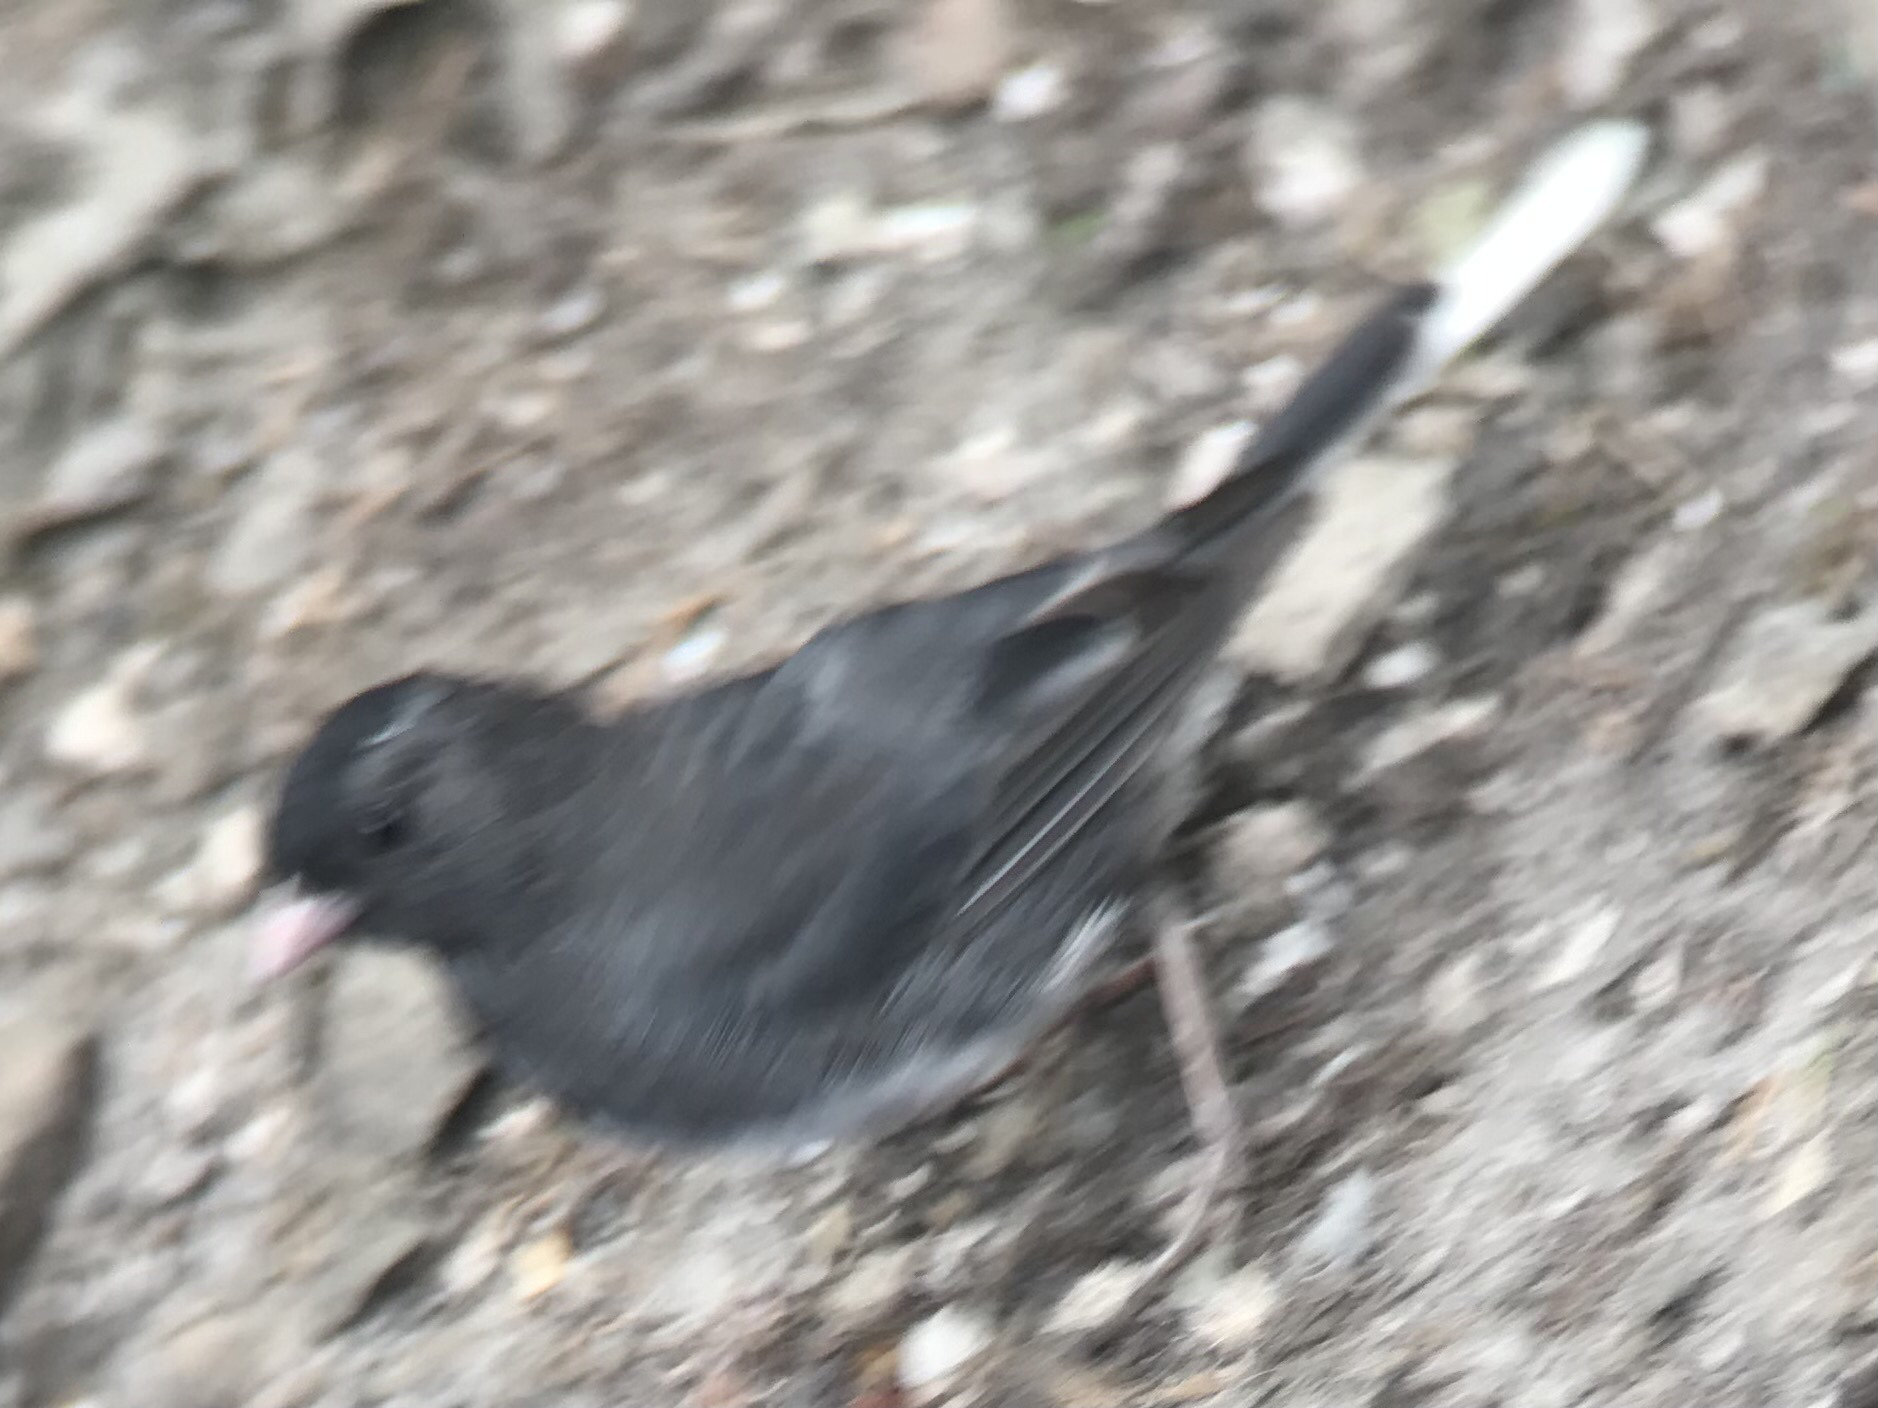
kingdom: Animalia
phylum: Chordata
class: Aves
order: Passeriformes
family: Passerellidae
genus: Junco
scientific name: Junco hyemalis
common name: Dark-eyed junco
